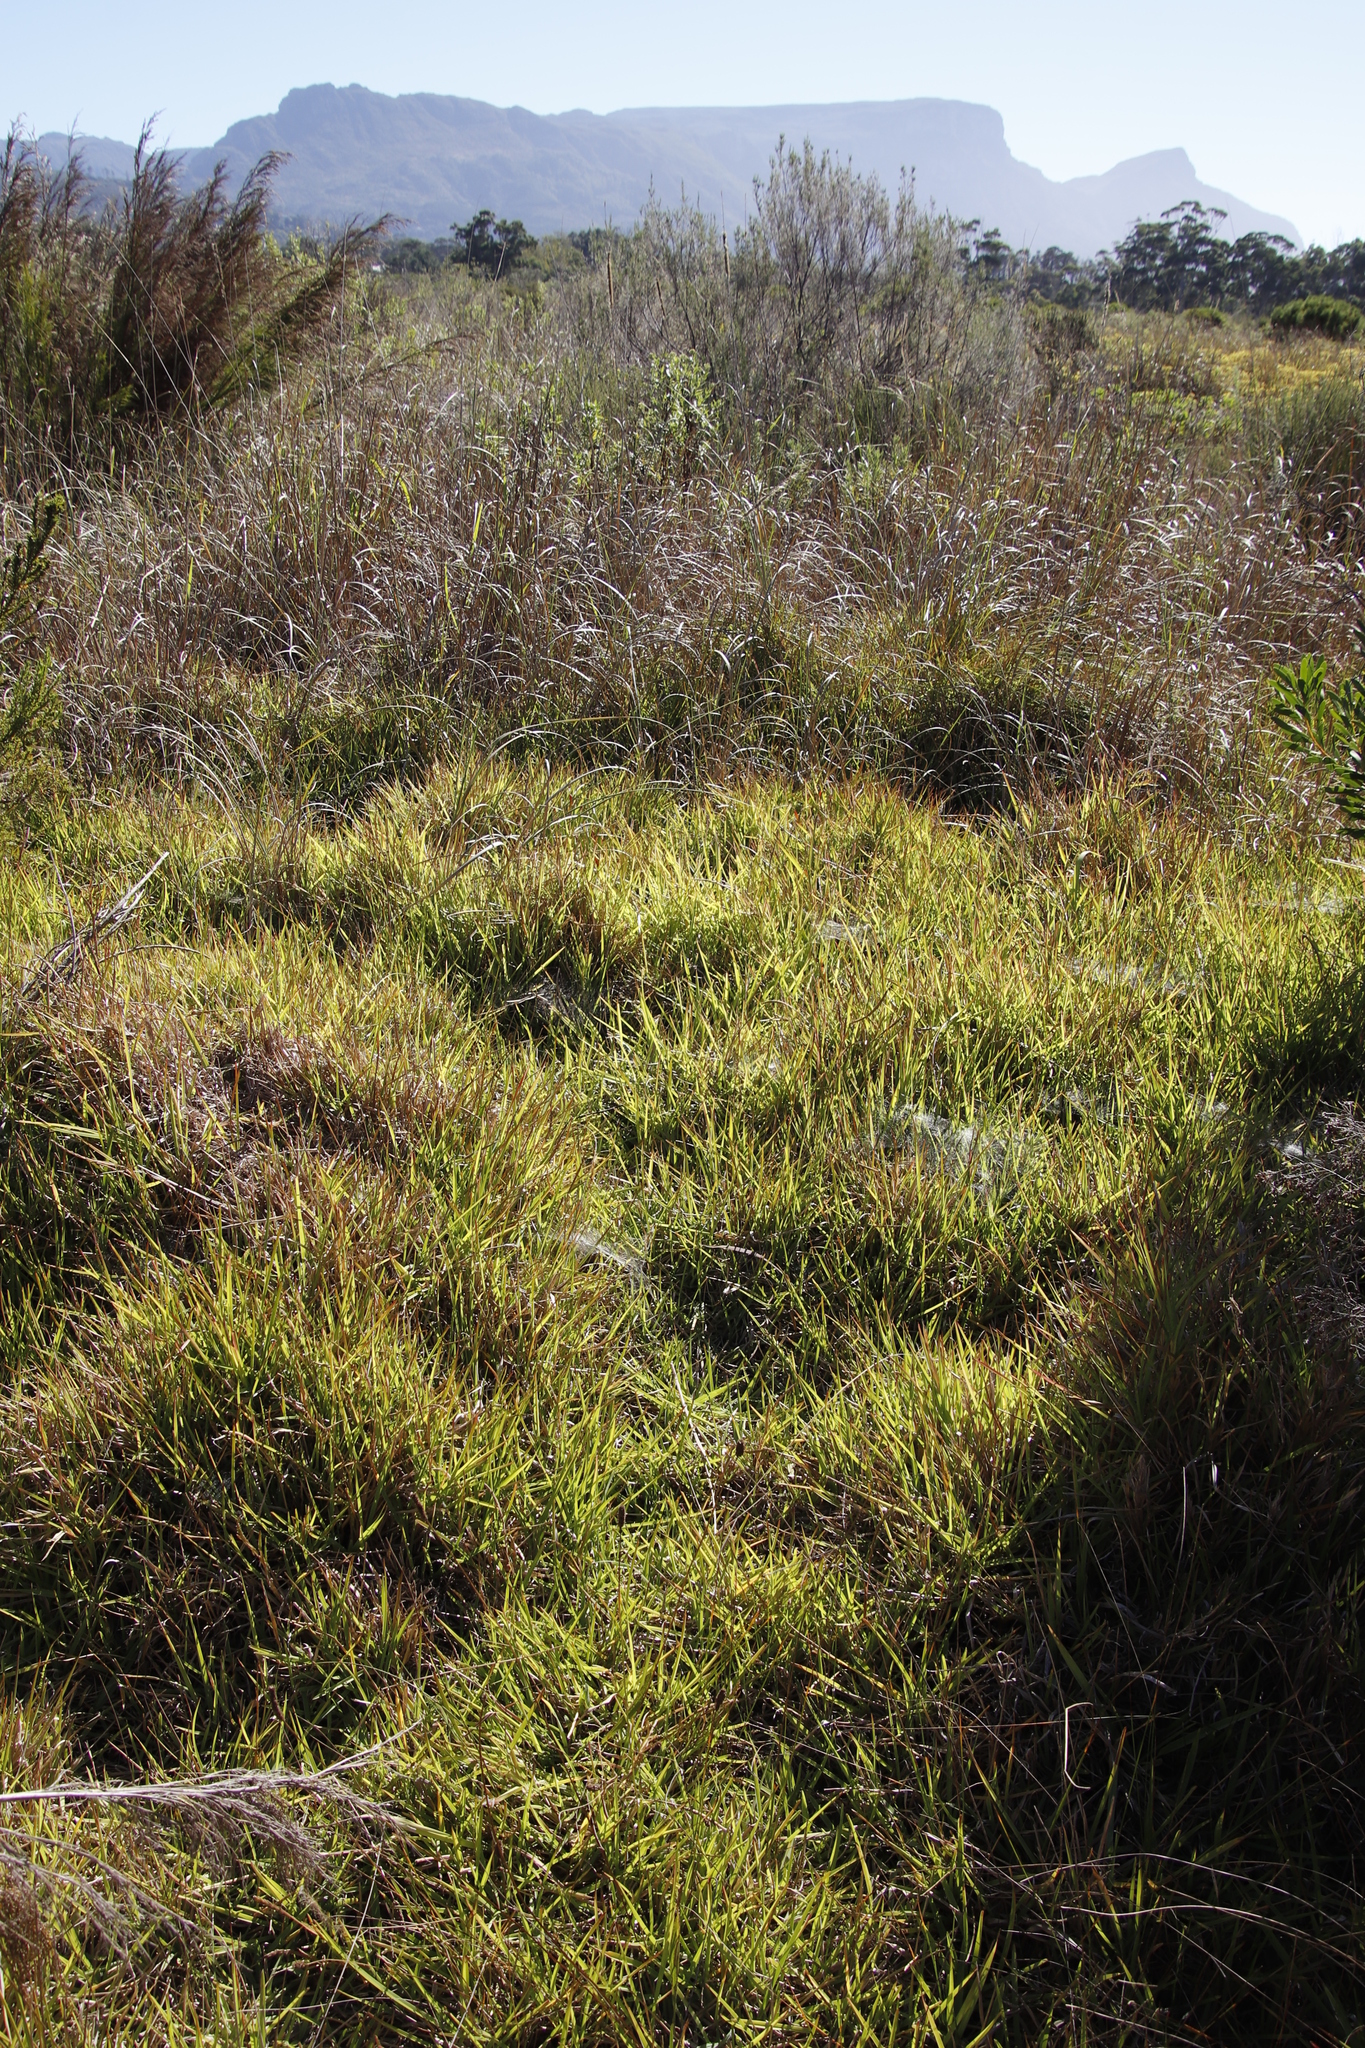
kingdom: Plantae
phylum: Tracheophyta
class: Liliopsida
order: Poales
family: Poaceae
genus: Cenchrus
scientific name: Cenchrus purpureus
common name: Elephant grass
